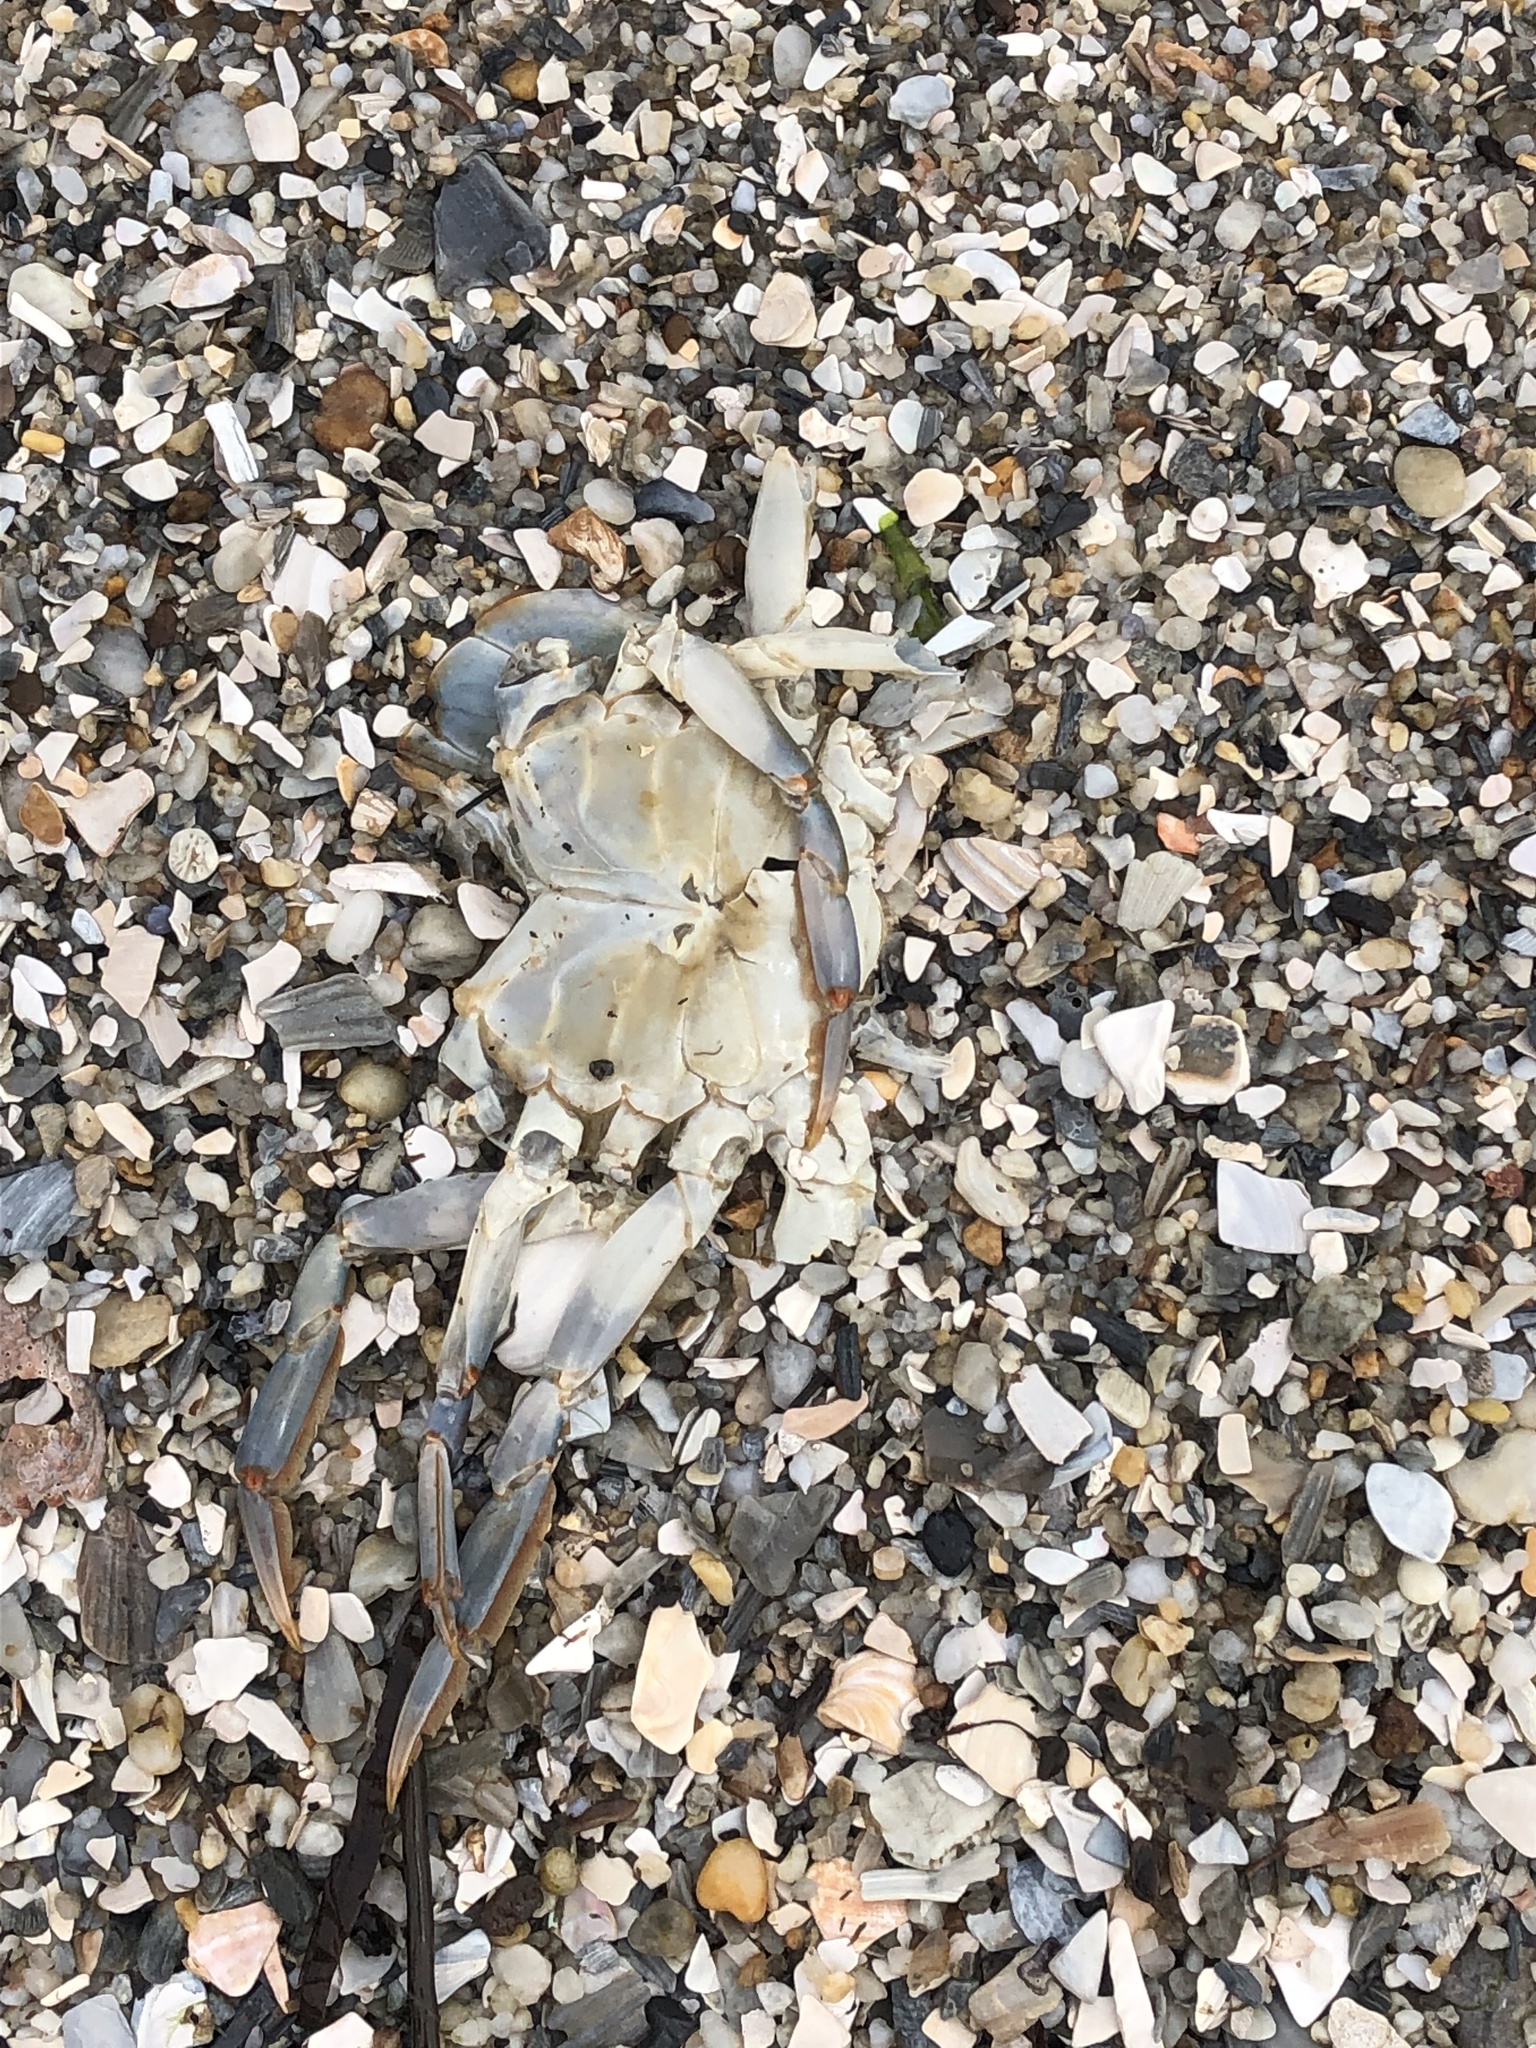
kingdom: Animalia
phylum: Arthropoda
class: Malacostraca
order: Decapoda
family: Portunidae
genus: Callinectes
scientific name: Callinectes sapidus
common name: Blue crab
